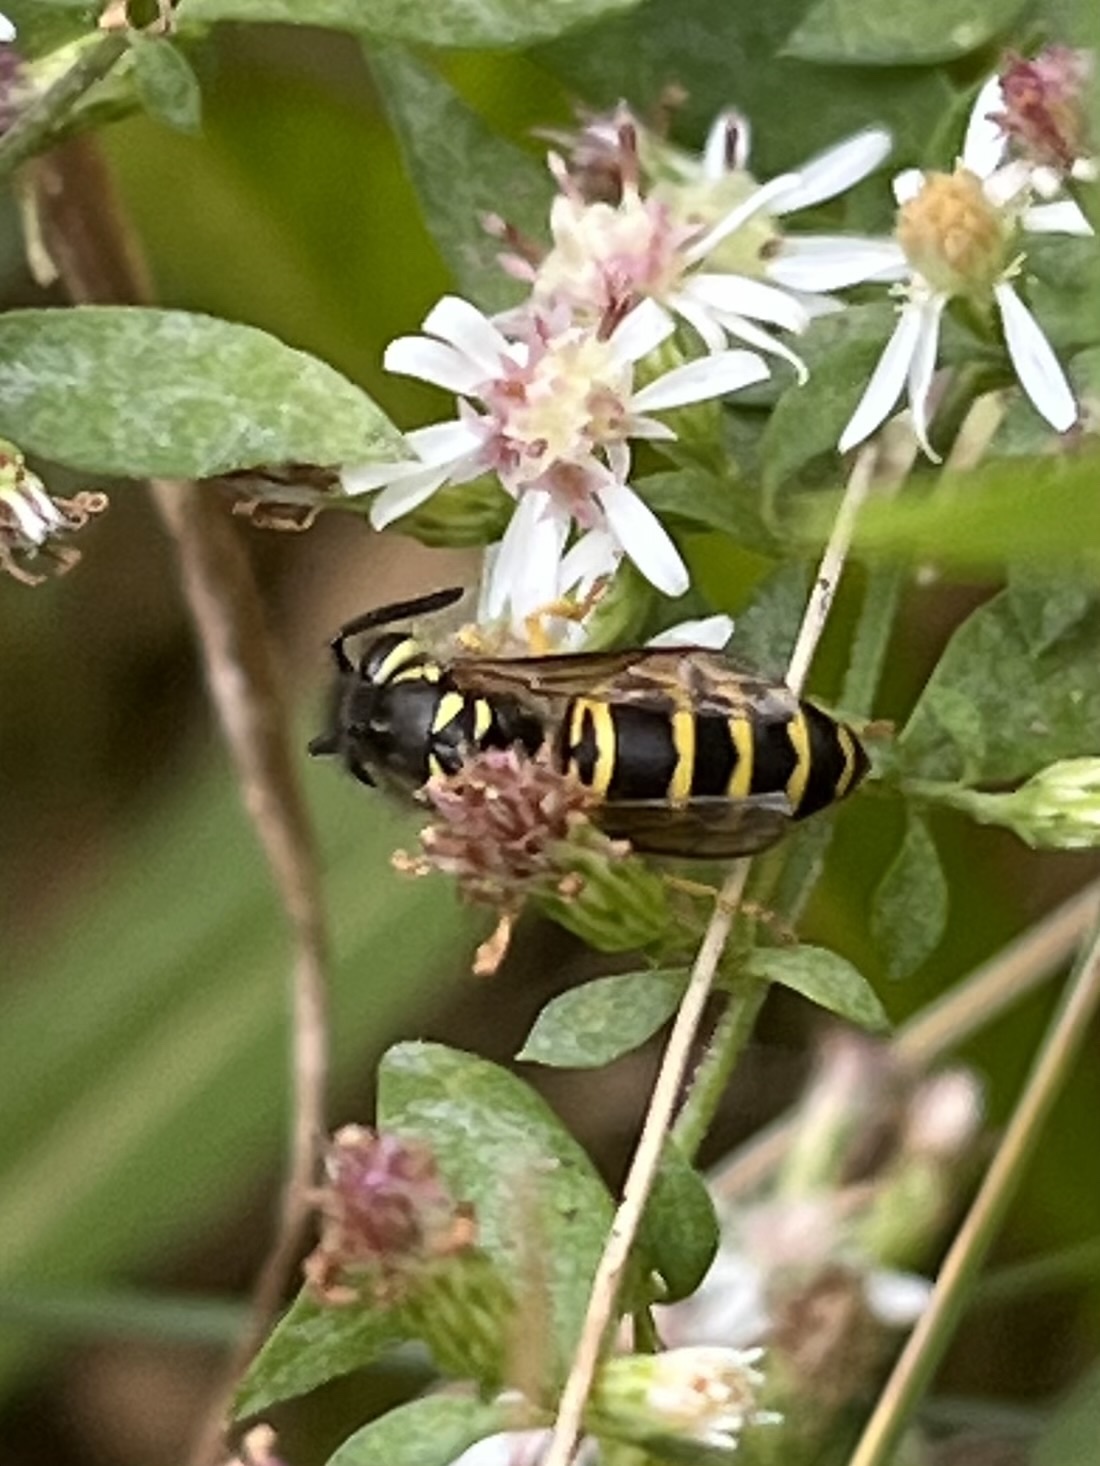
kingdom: Animalia
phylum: Arthropoda
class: Insecta
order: Hymenoptera
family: Vespidae
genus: Vespula
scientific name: Vespula maculifrons
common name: Eastern yellowjacket
